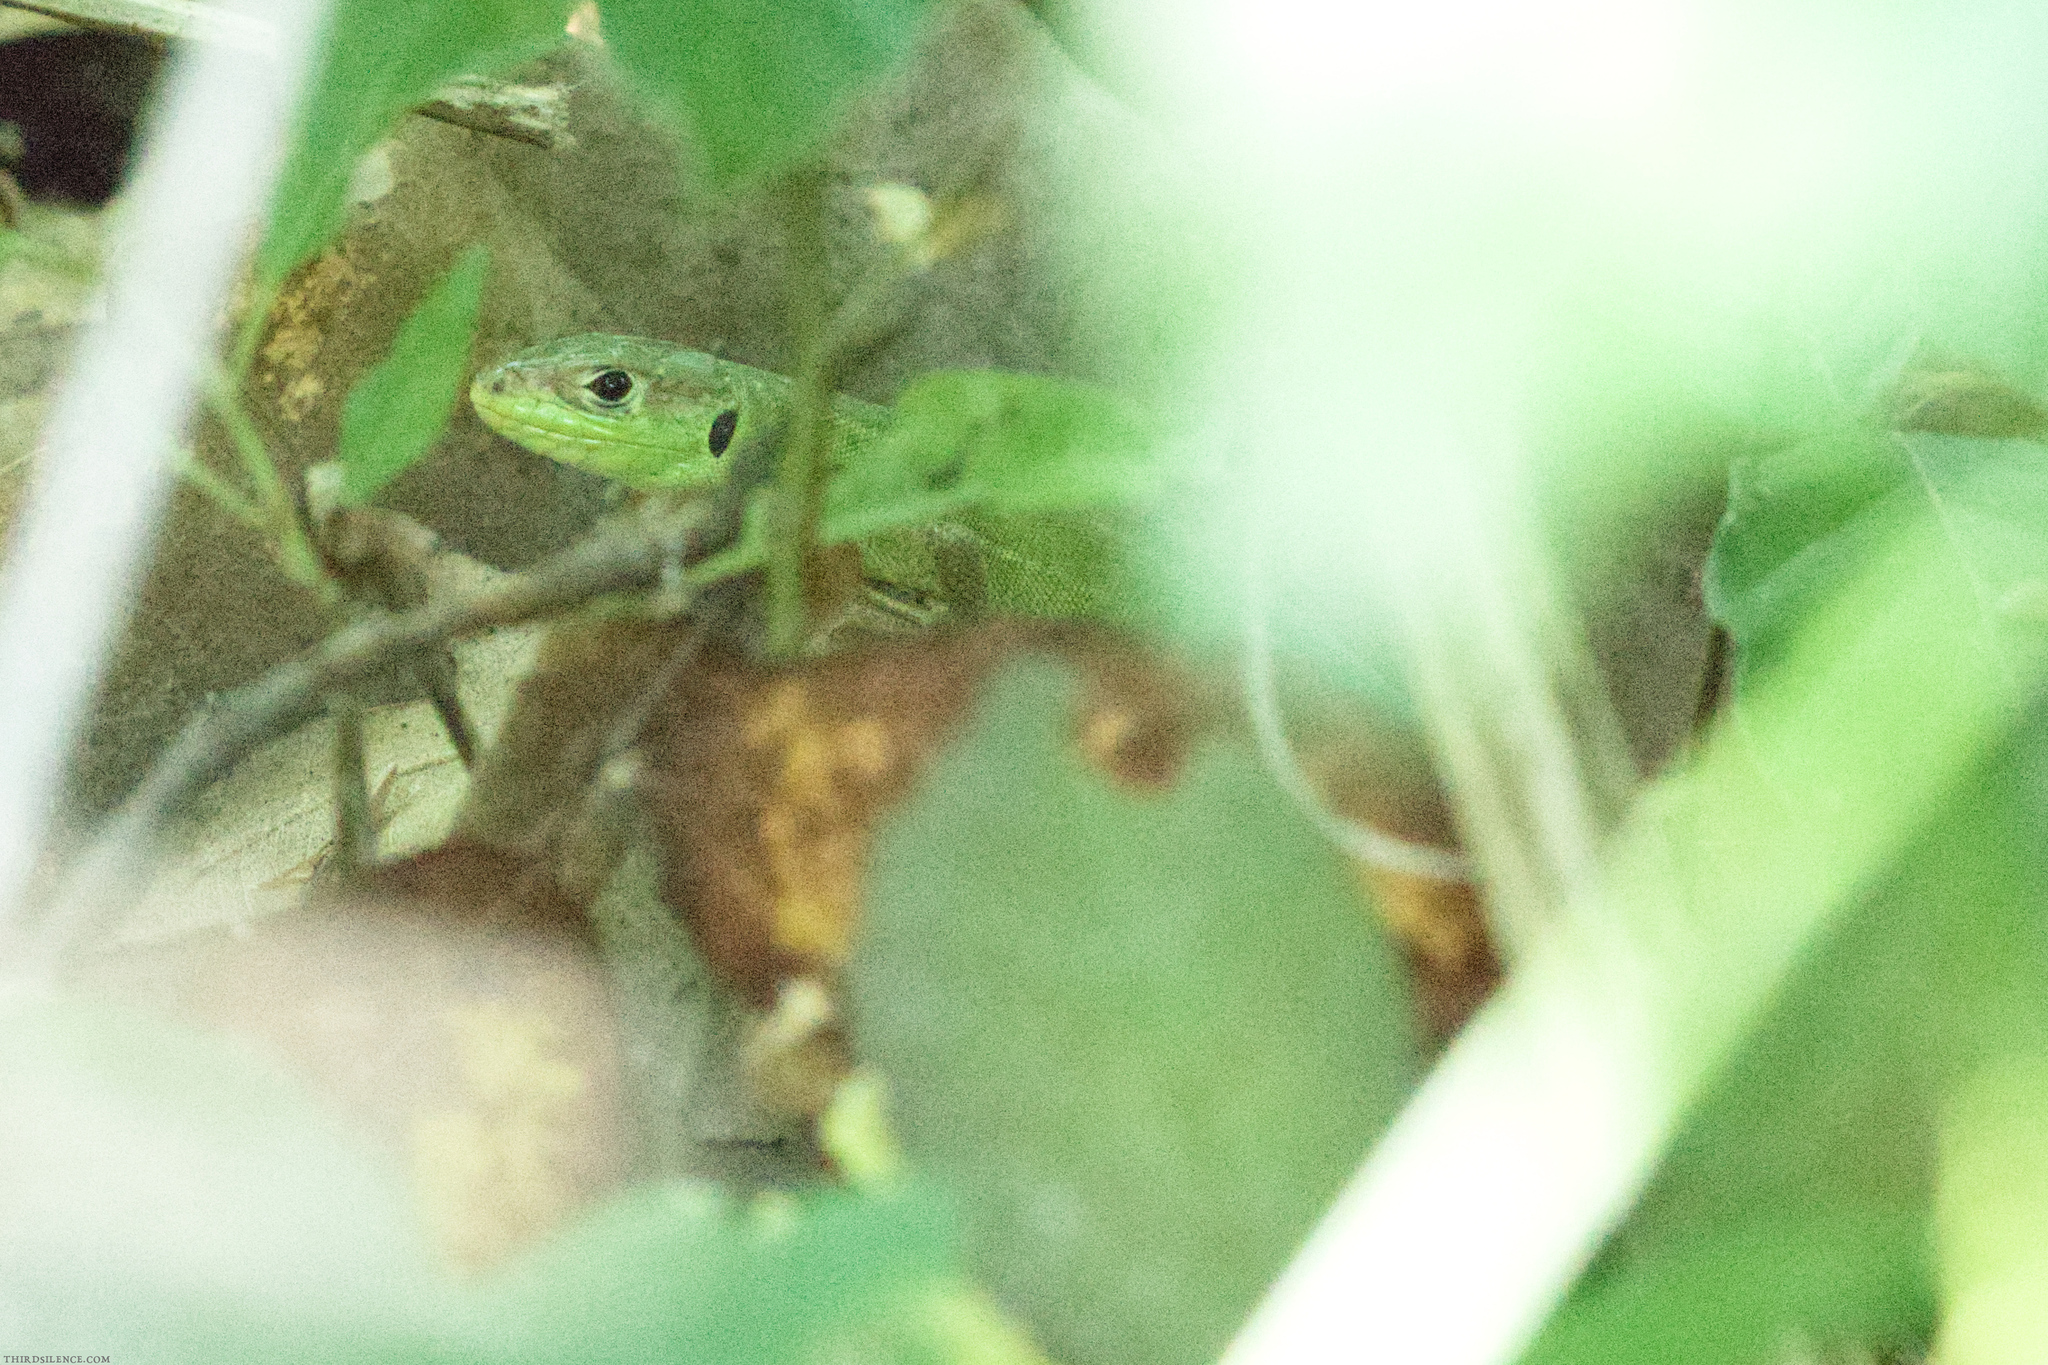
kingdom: Animalia
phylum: Chordata
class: Squamata
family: Lacertidae
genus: Lacerta
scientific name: Lacerta bilineata
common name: Western green lizard
